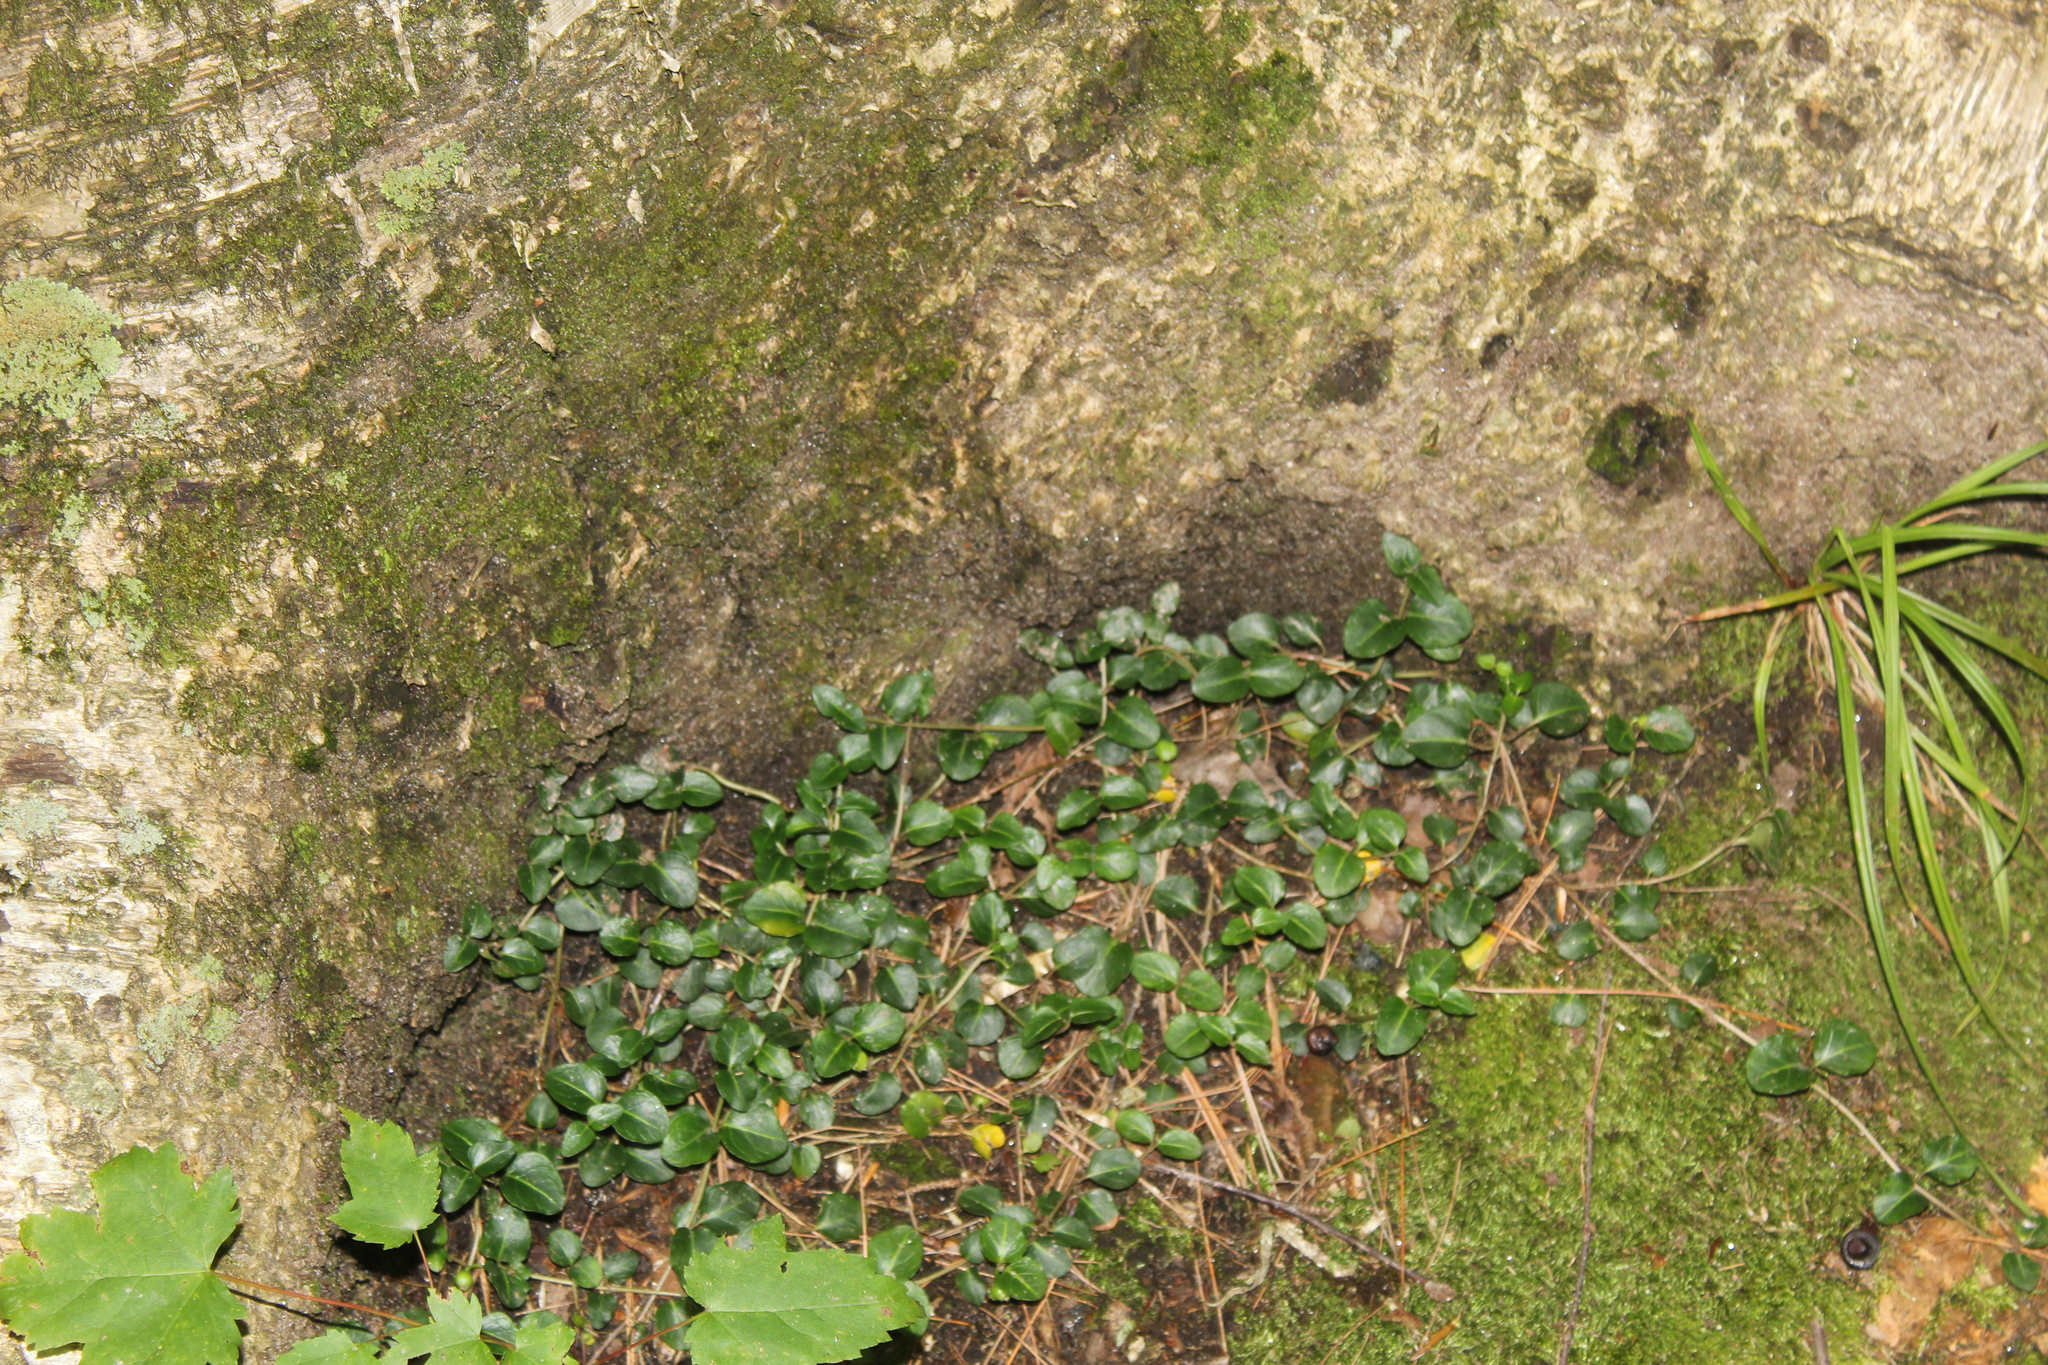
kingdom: Plantae
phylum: Tracheophyta
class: Magnoliopsida
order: Gentianales
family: Rubiaceae
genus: Mitchella
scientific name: Mitchella repens
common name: Partridge-berry
